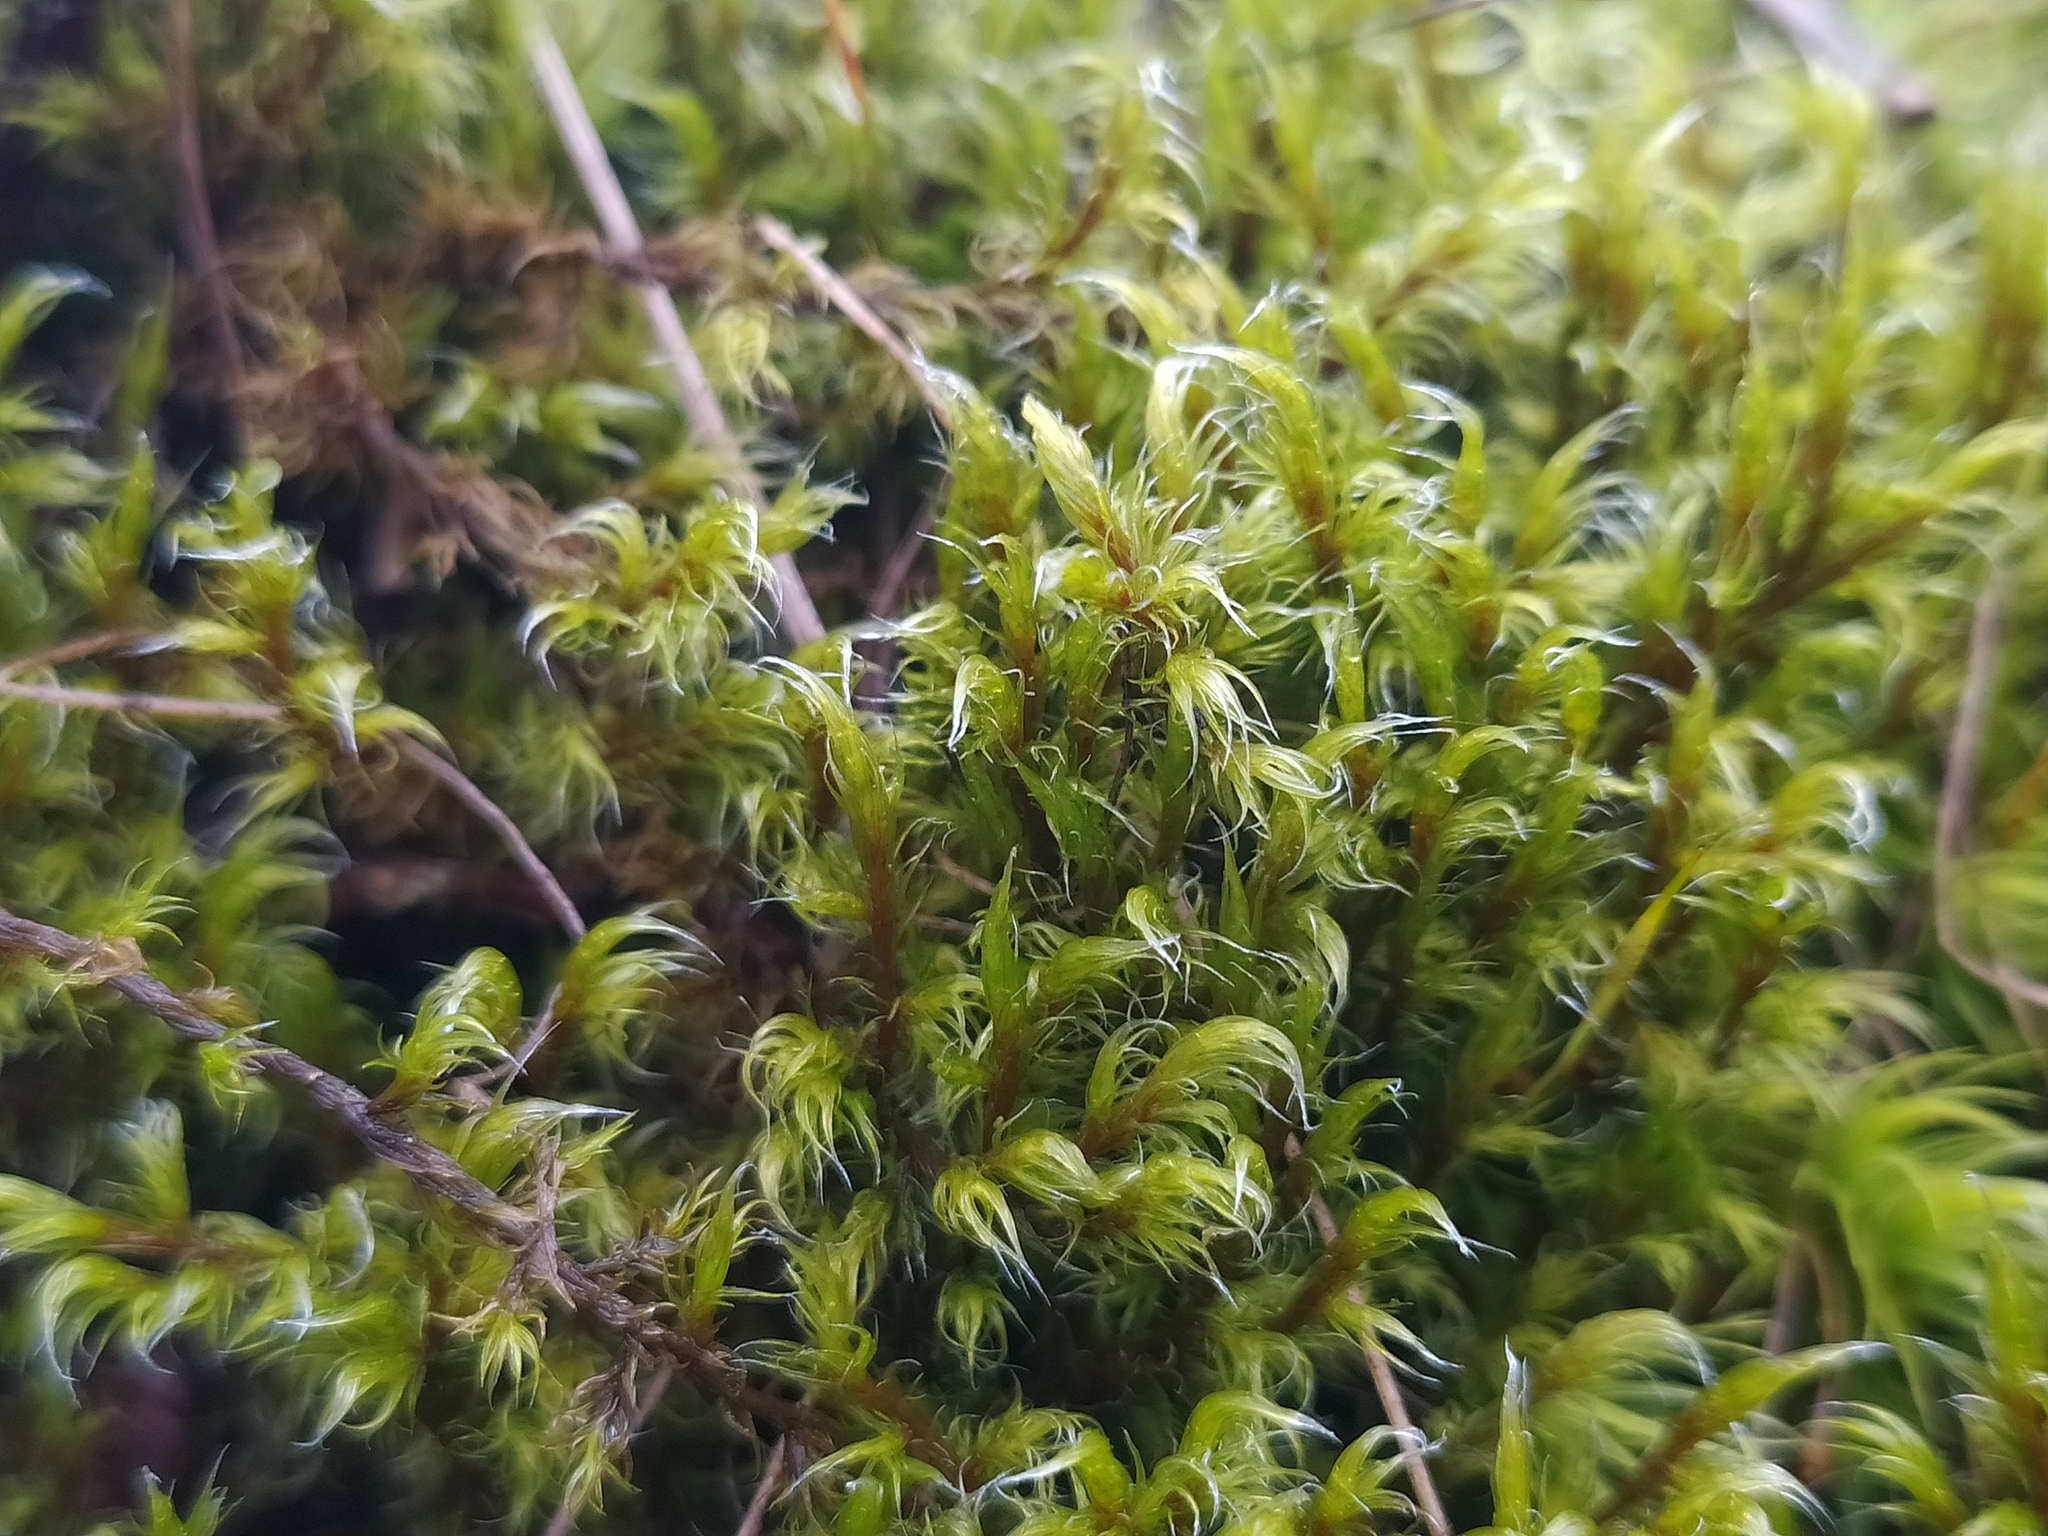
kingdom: Plantae
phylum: Bryophyta
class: Bryopsida
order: Grimmiales
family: Grimmiaceae
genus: Racomitrium
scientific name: Racomitrium lanuginosum
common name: Hoary rock moss
